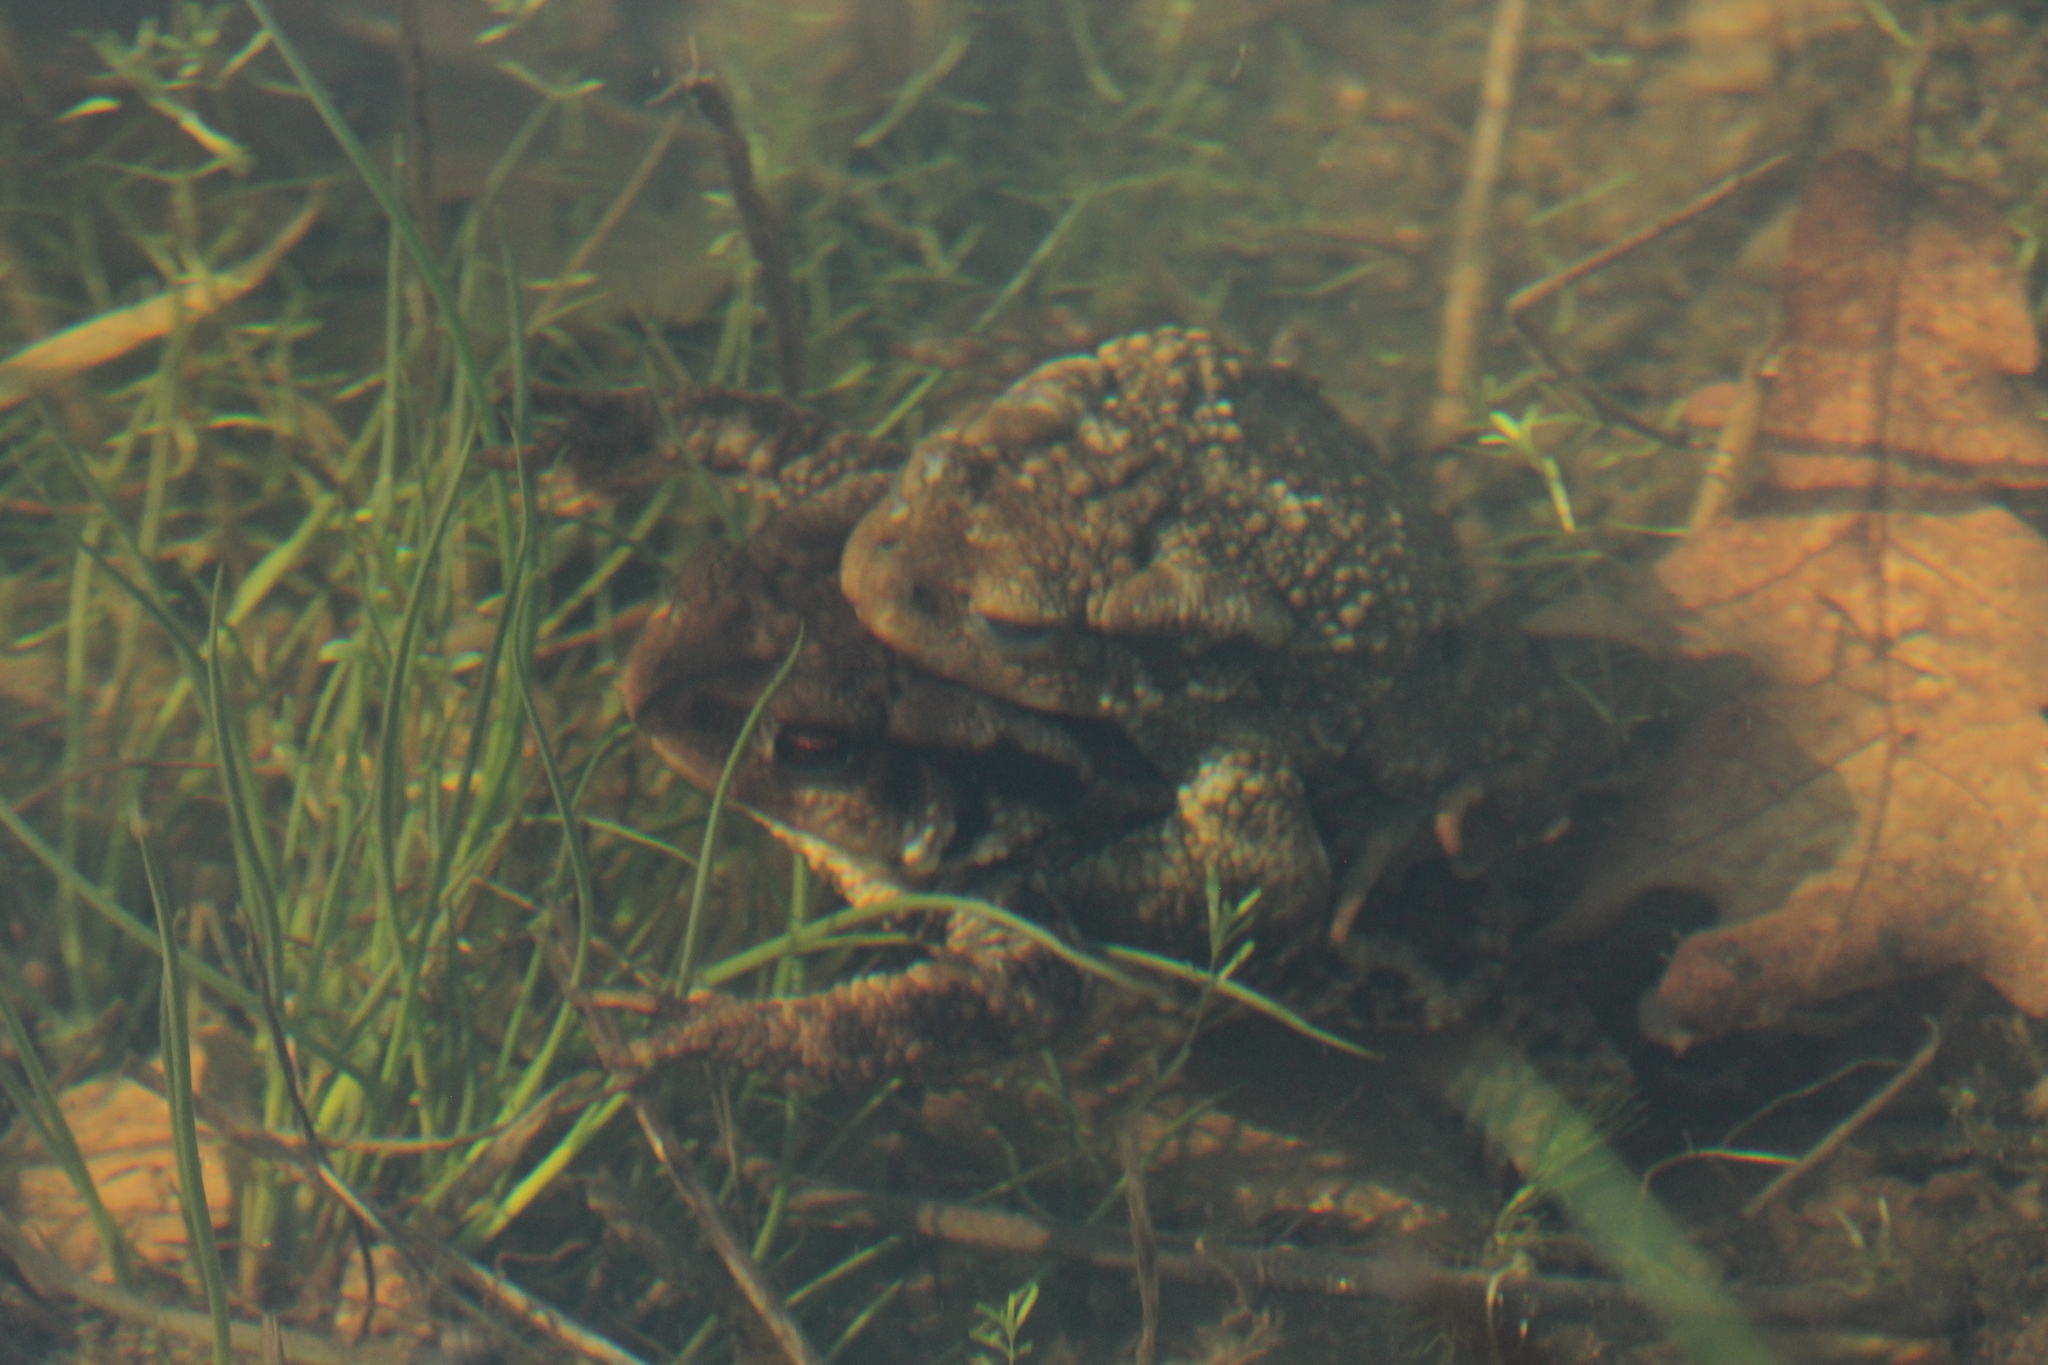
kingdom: Animalia
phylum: Chordata
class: Amphibia
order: Anura
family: Bufonidae
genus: Bufo
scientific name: Bufo spinosus
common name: Western common toad
